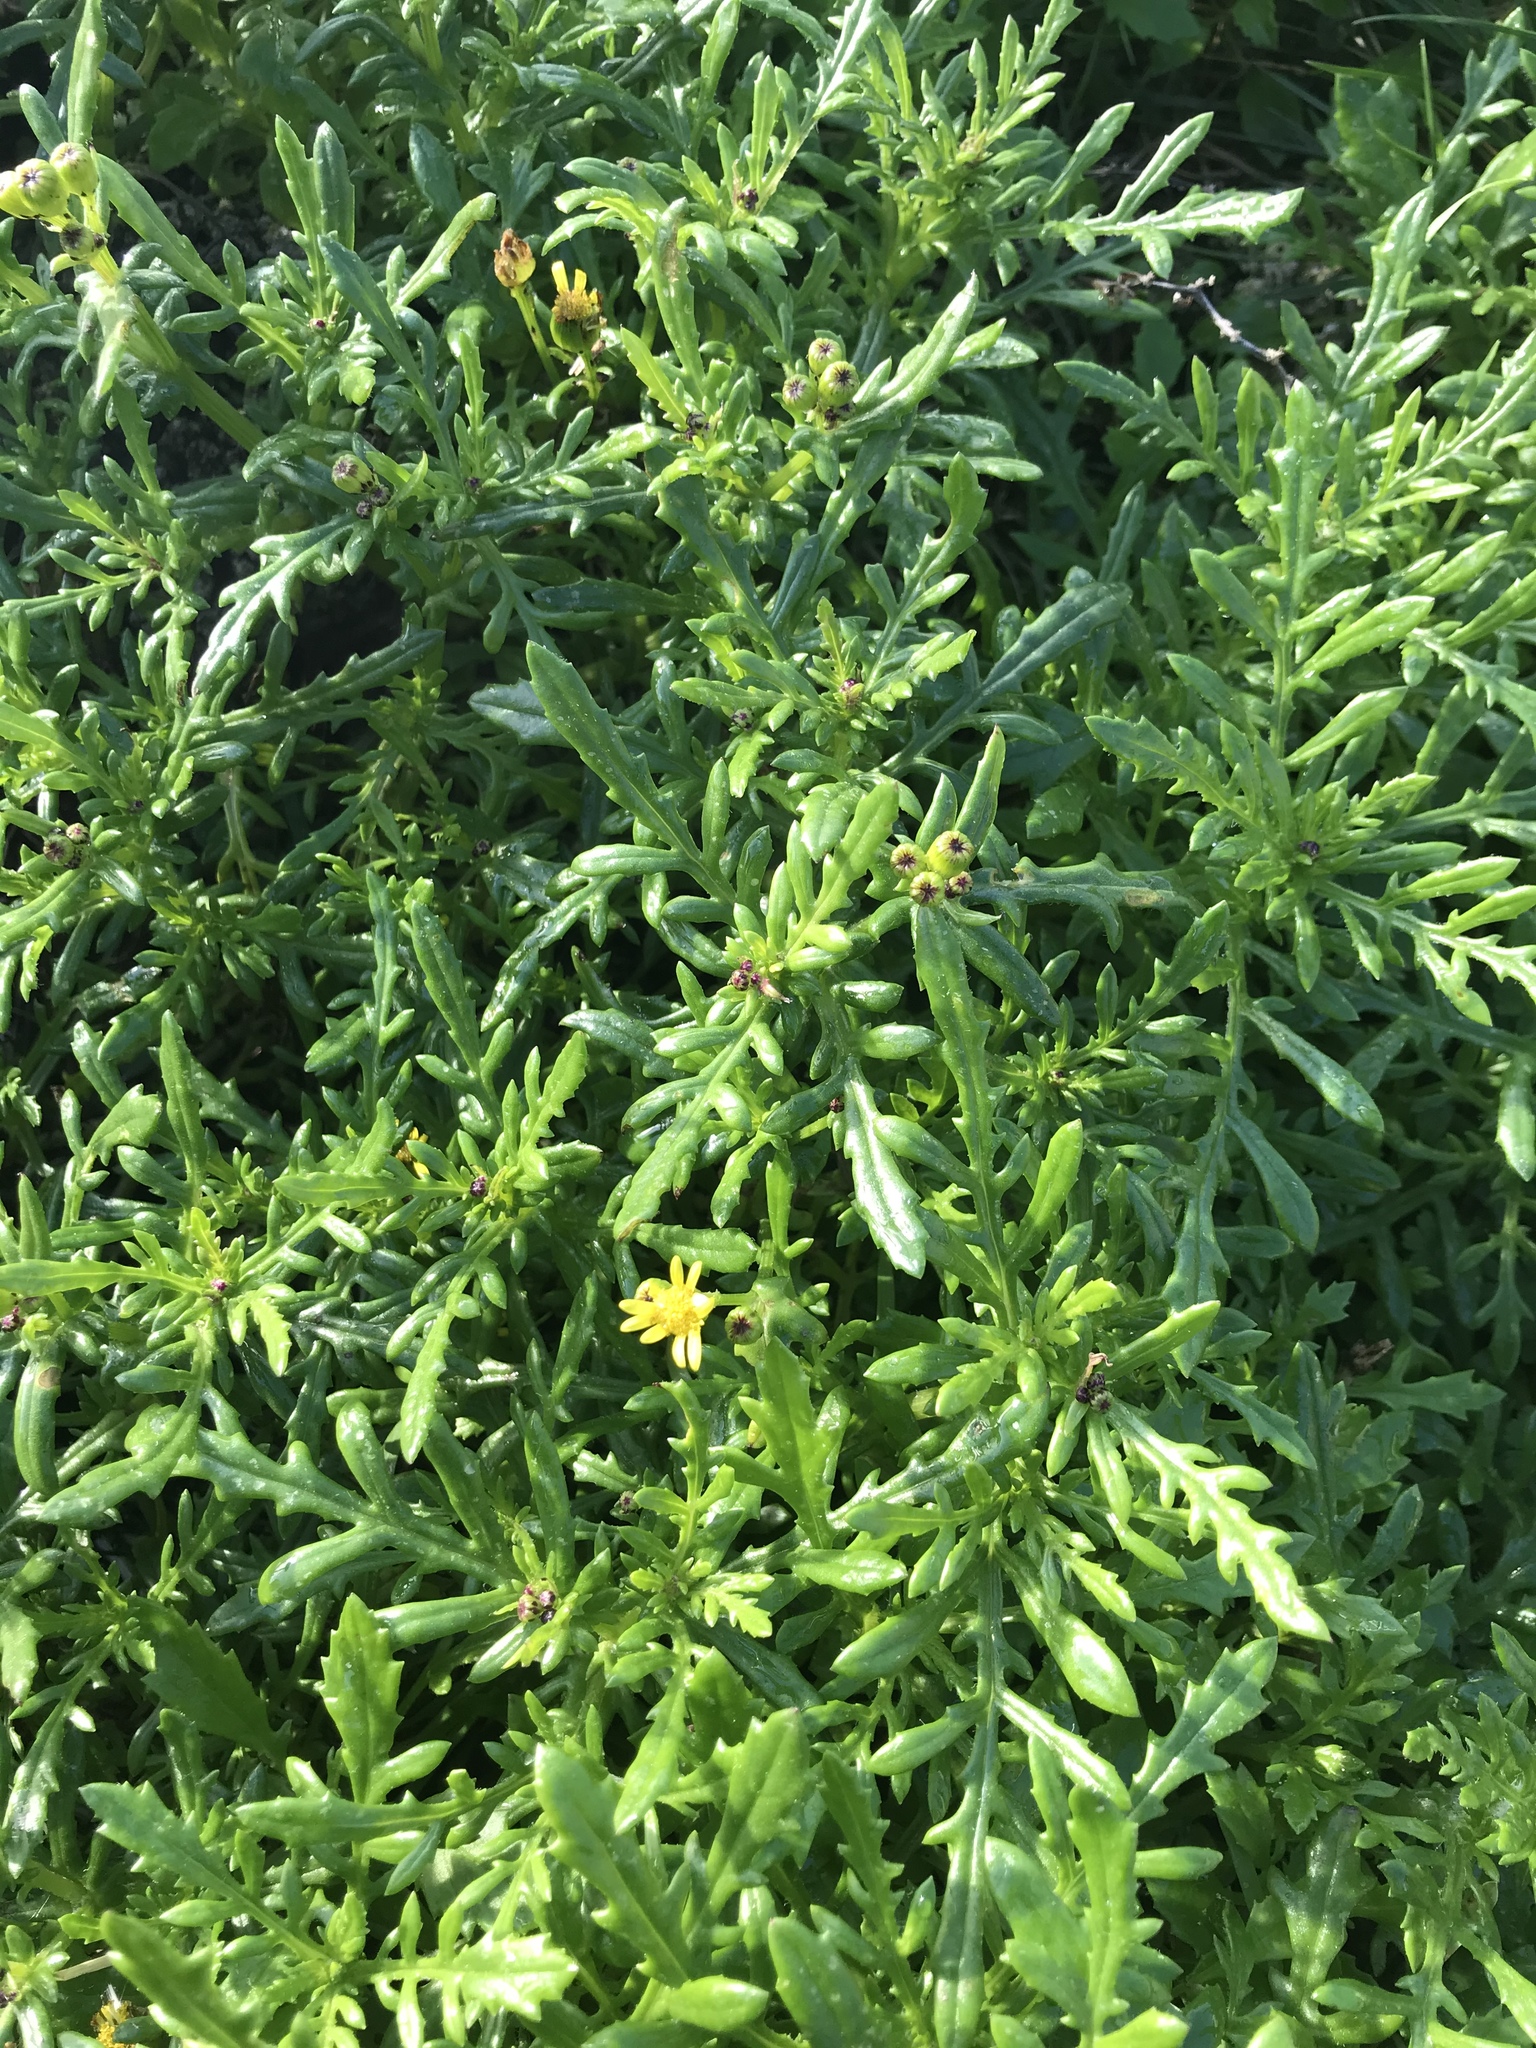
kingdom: Plantae
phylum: Tracheophyta
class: Magnoliopsida
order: Asterales
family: Asteraceae
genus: Senecio
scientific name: Senecio lautus
